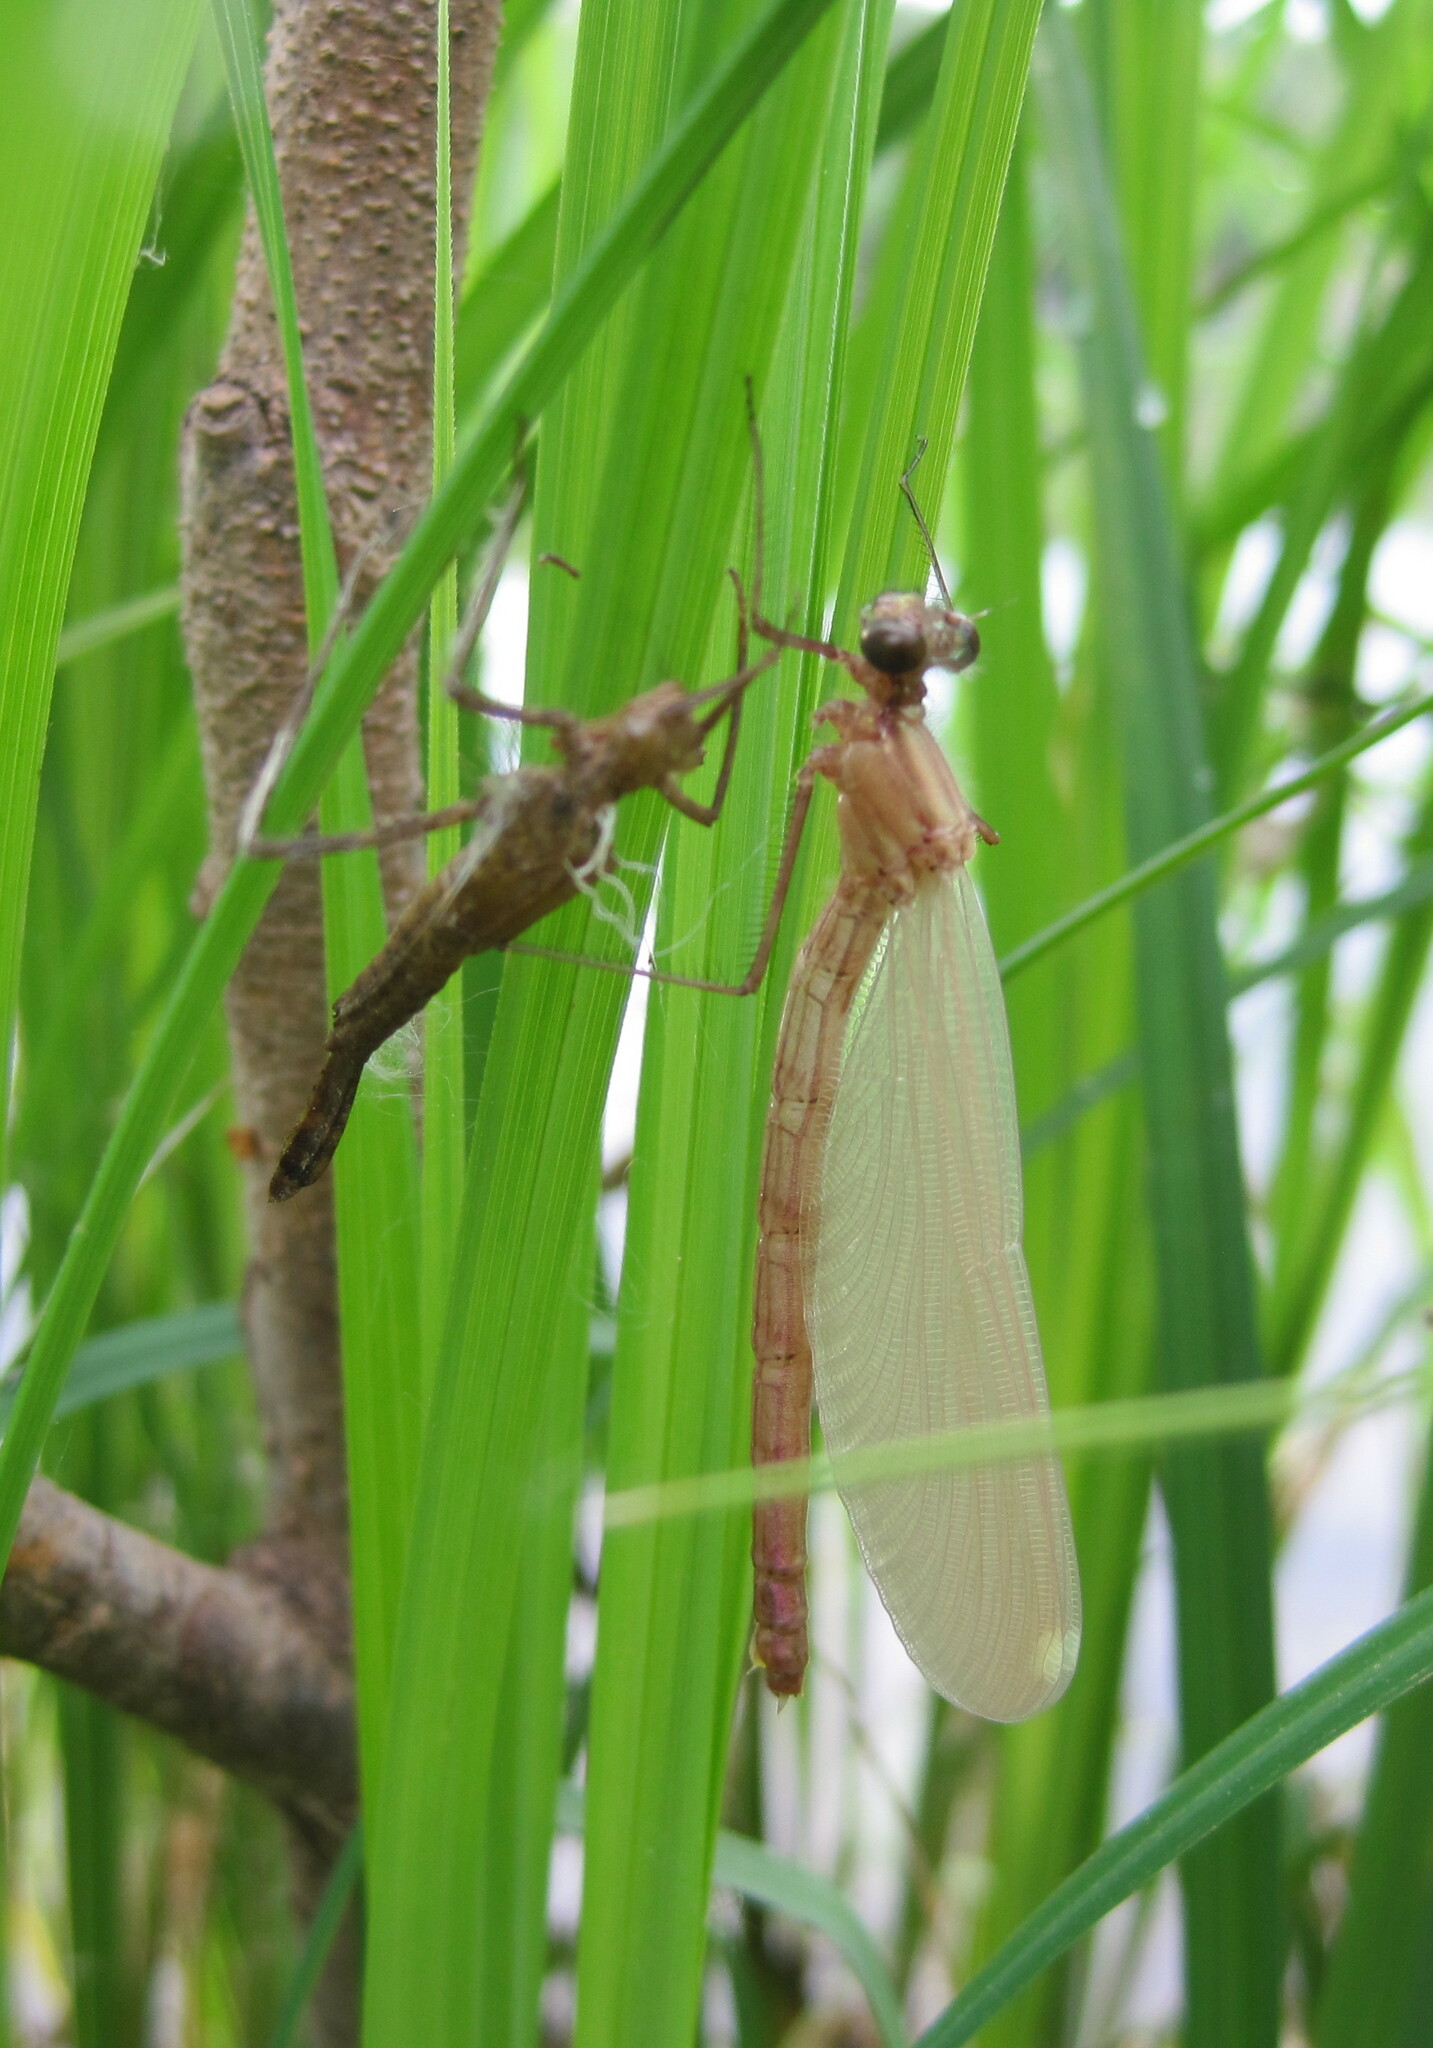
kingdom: Animalia
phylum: Arthropoda
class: Insecta
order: Odonata
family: Calopterygidae
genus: Calopteryx
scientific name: Calopteryx splendens
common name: Banded demoiselle
